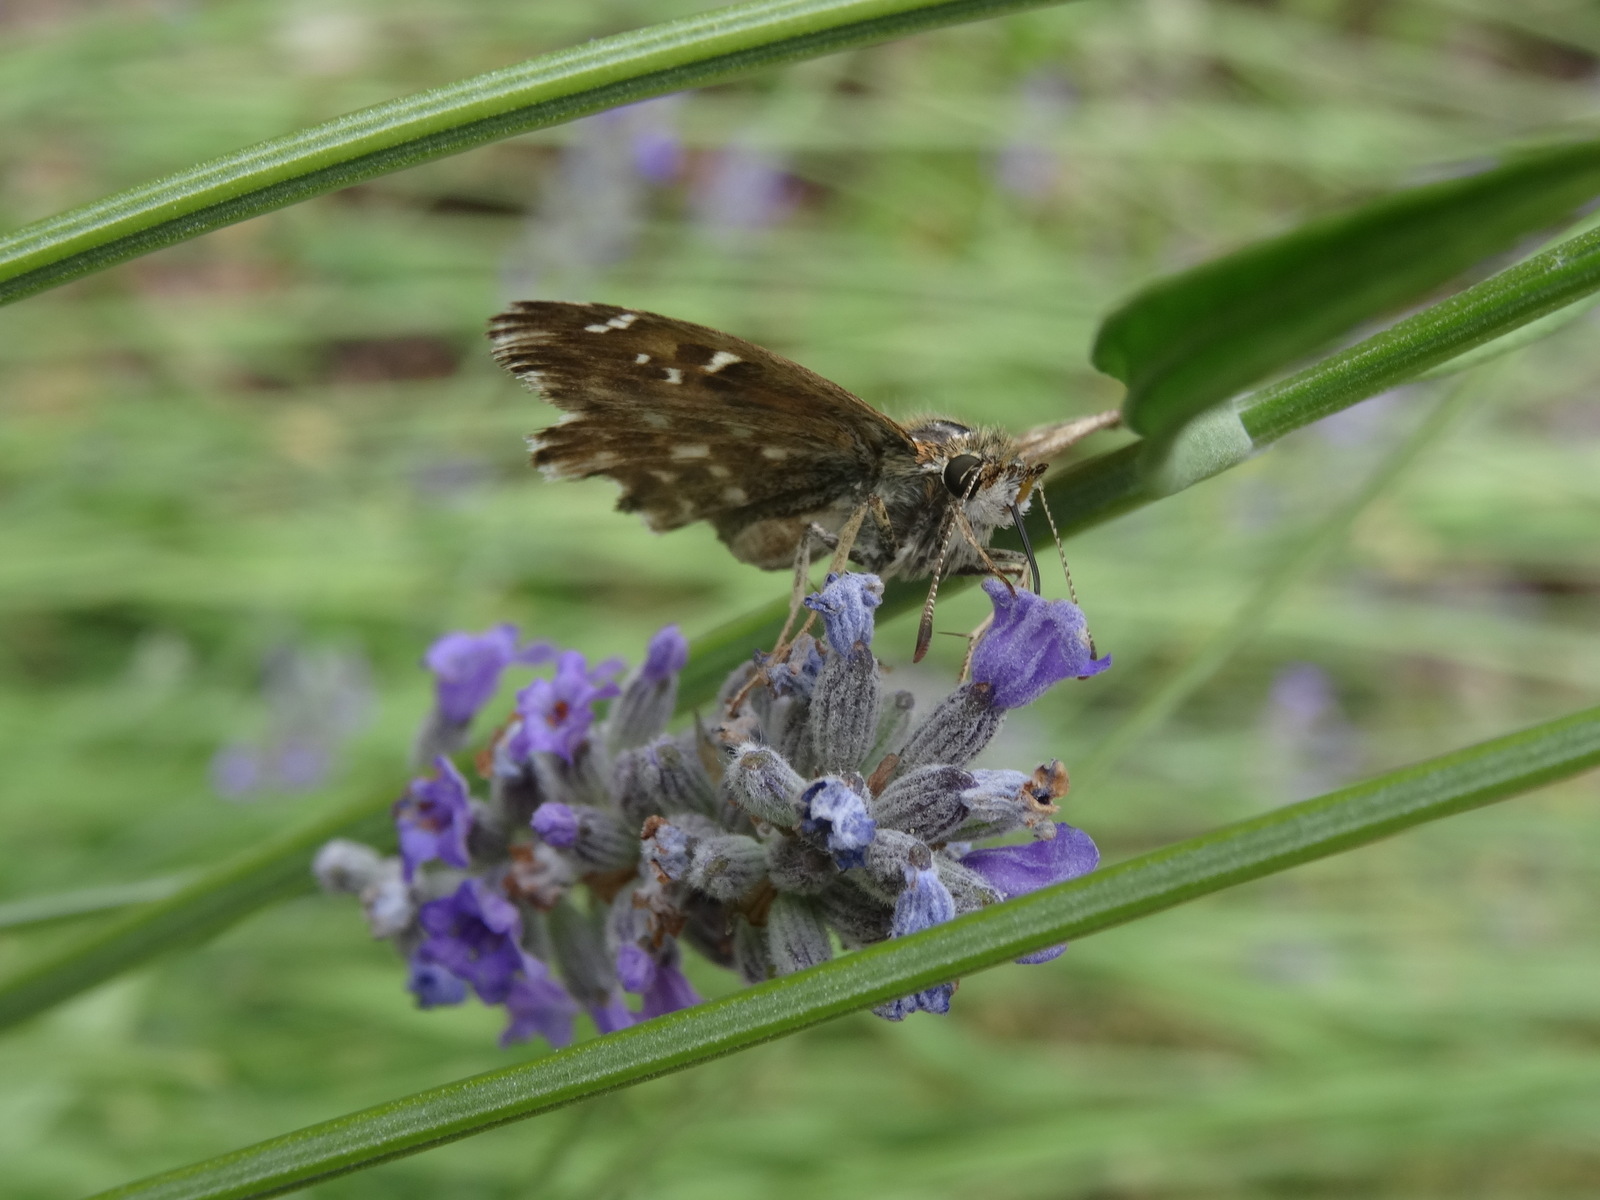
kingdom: Animalia
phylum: Arthropoda
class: Insecta
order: Lepidoptera
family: Hesperiidae
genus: Carcharodus
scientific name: Carcharodus alceae
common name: Mallow skipper
